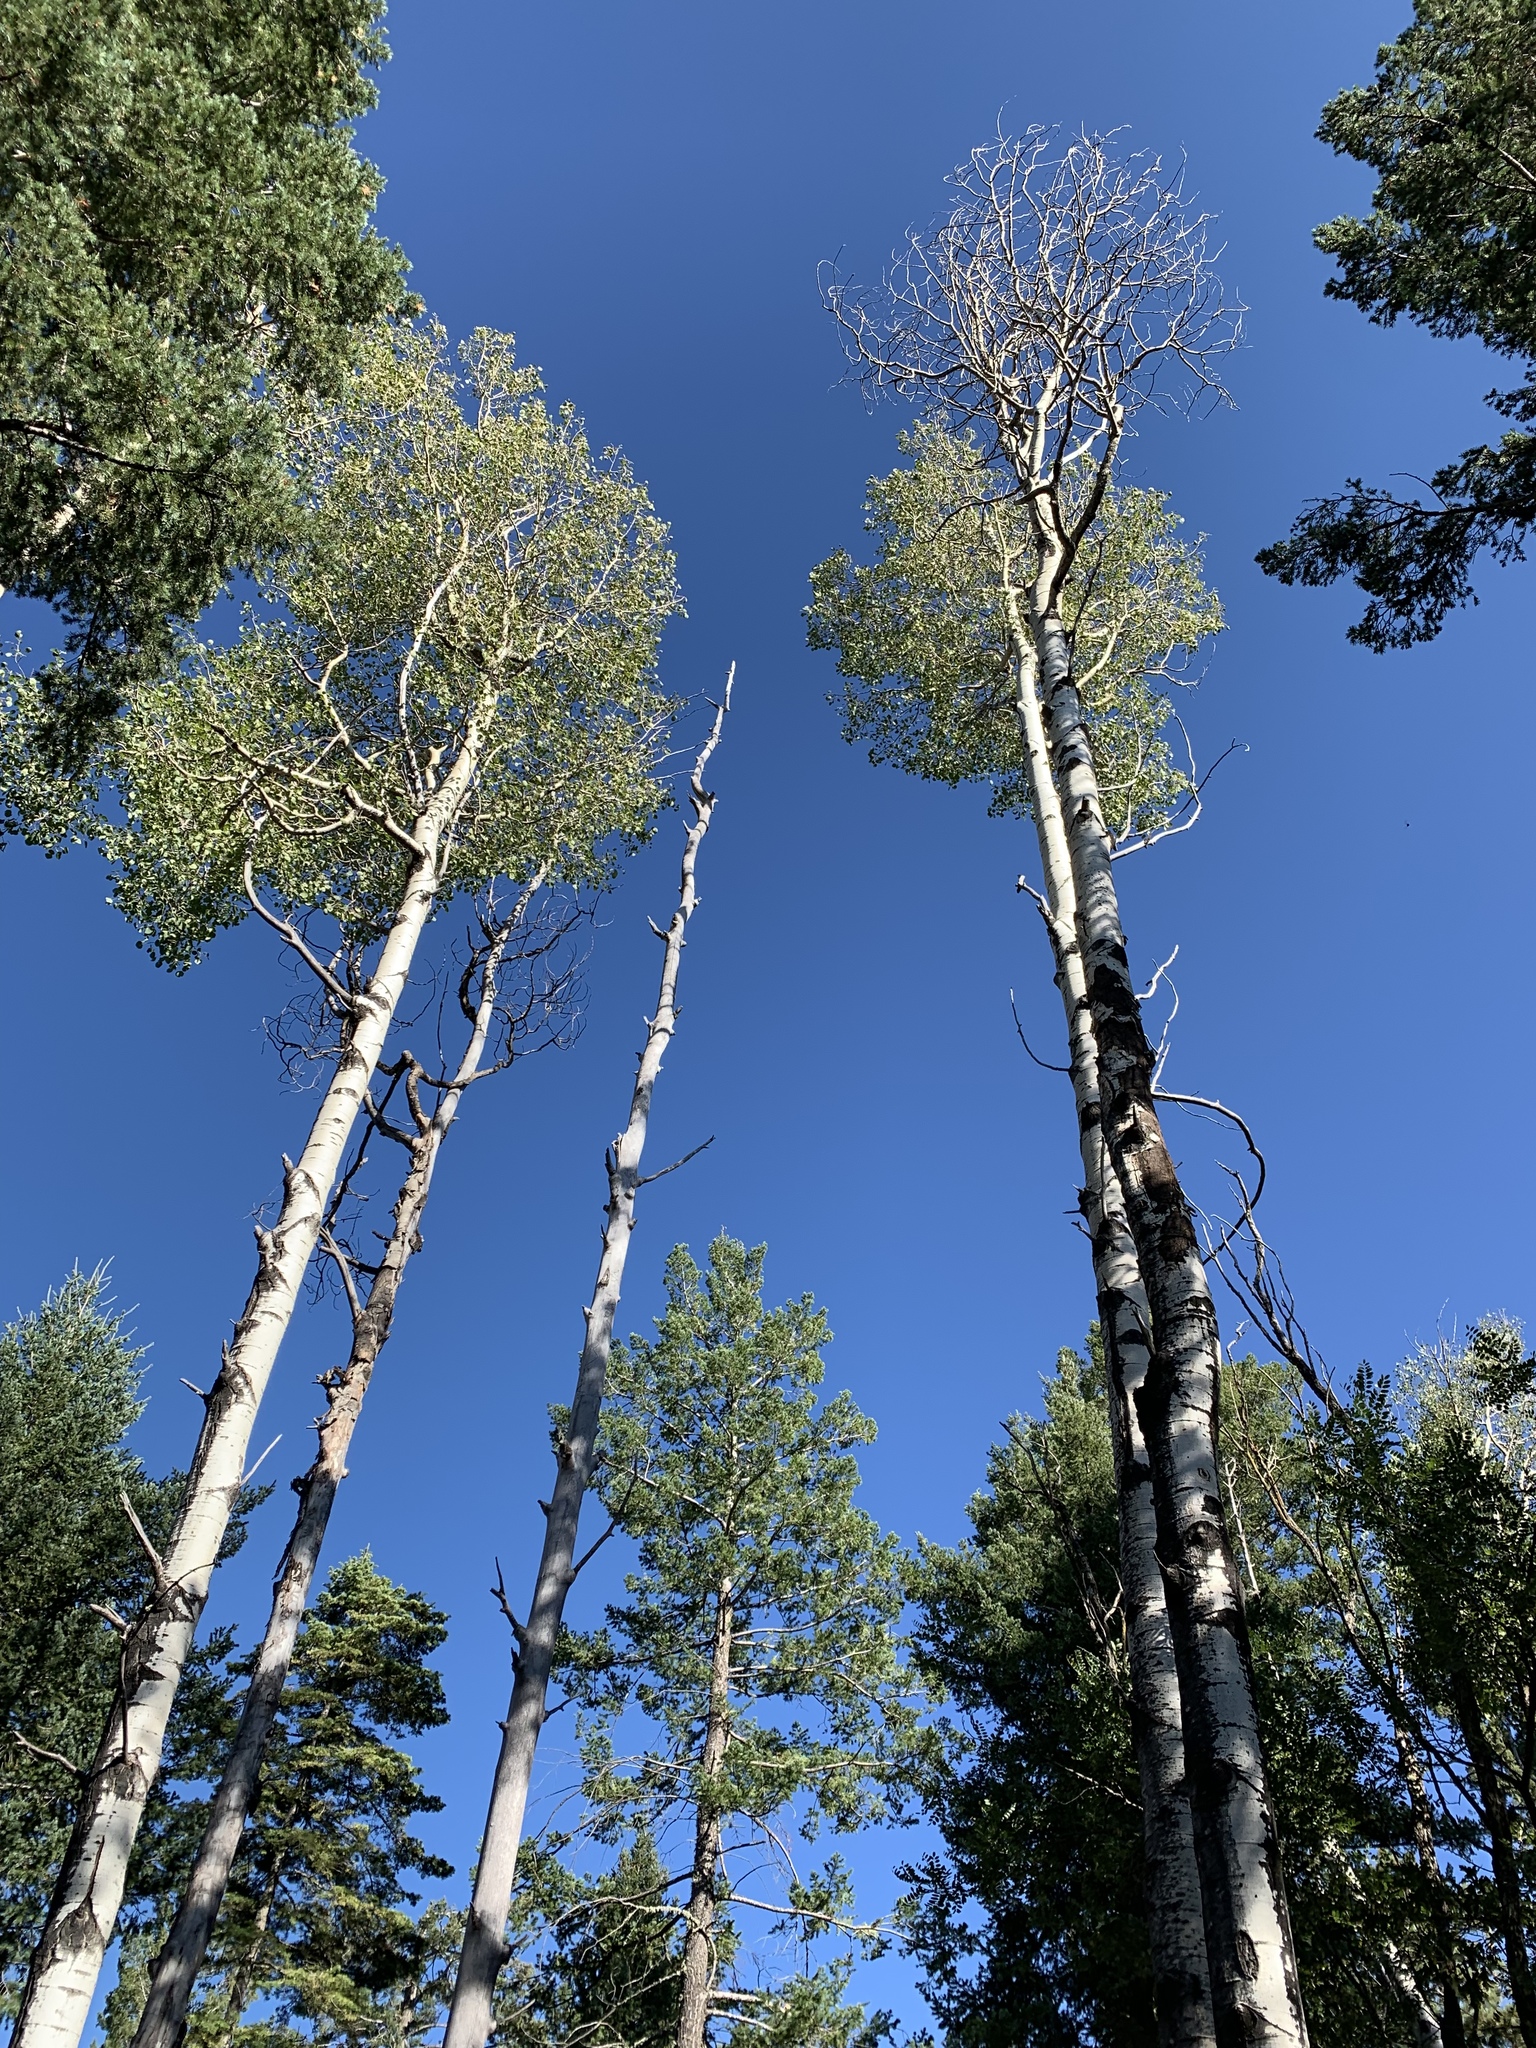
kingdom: Plantae
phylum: Tracheophyta
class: Magnoliopsida
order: Malpighiales
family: Salicaceae
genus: Populus
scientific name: Populus tremuloides
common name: Quaking aspen
